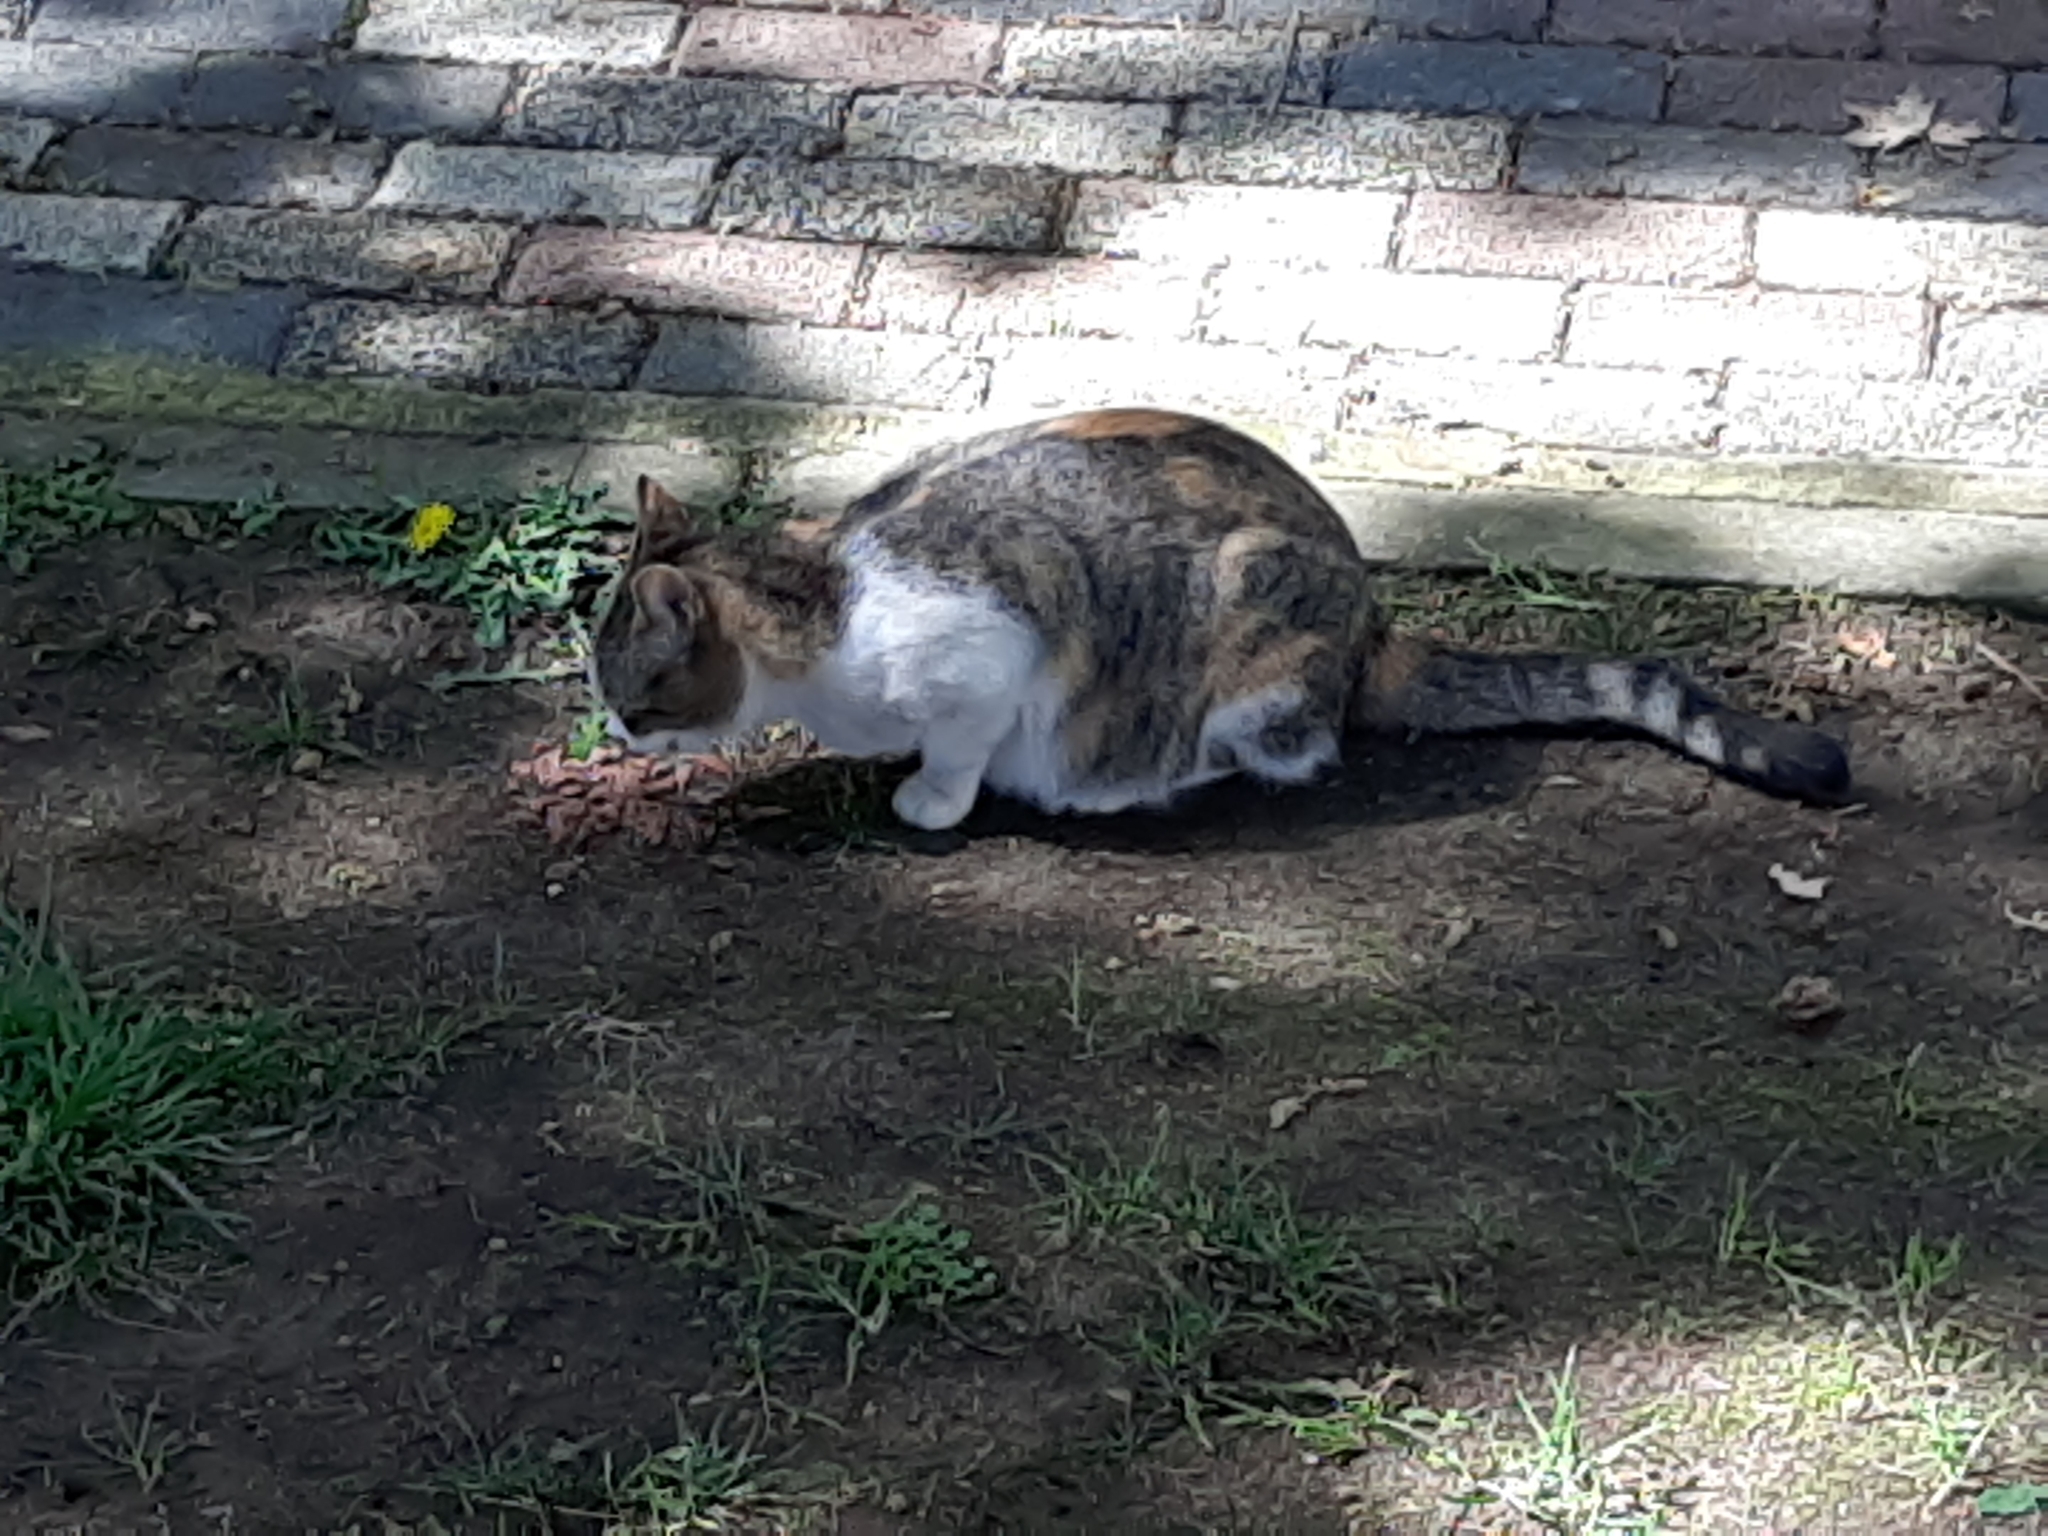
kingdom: Animalia
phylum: Chordata
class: Mammalia
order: Carnivora
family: Felidae
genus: Felis
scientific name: Felis catus
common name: Domestic cat
